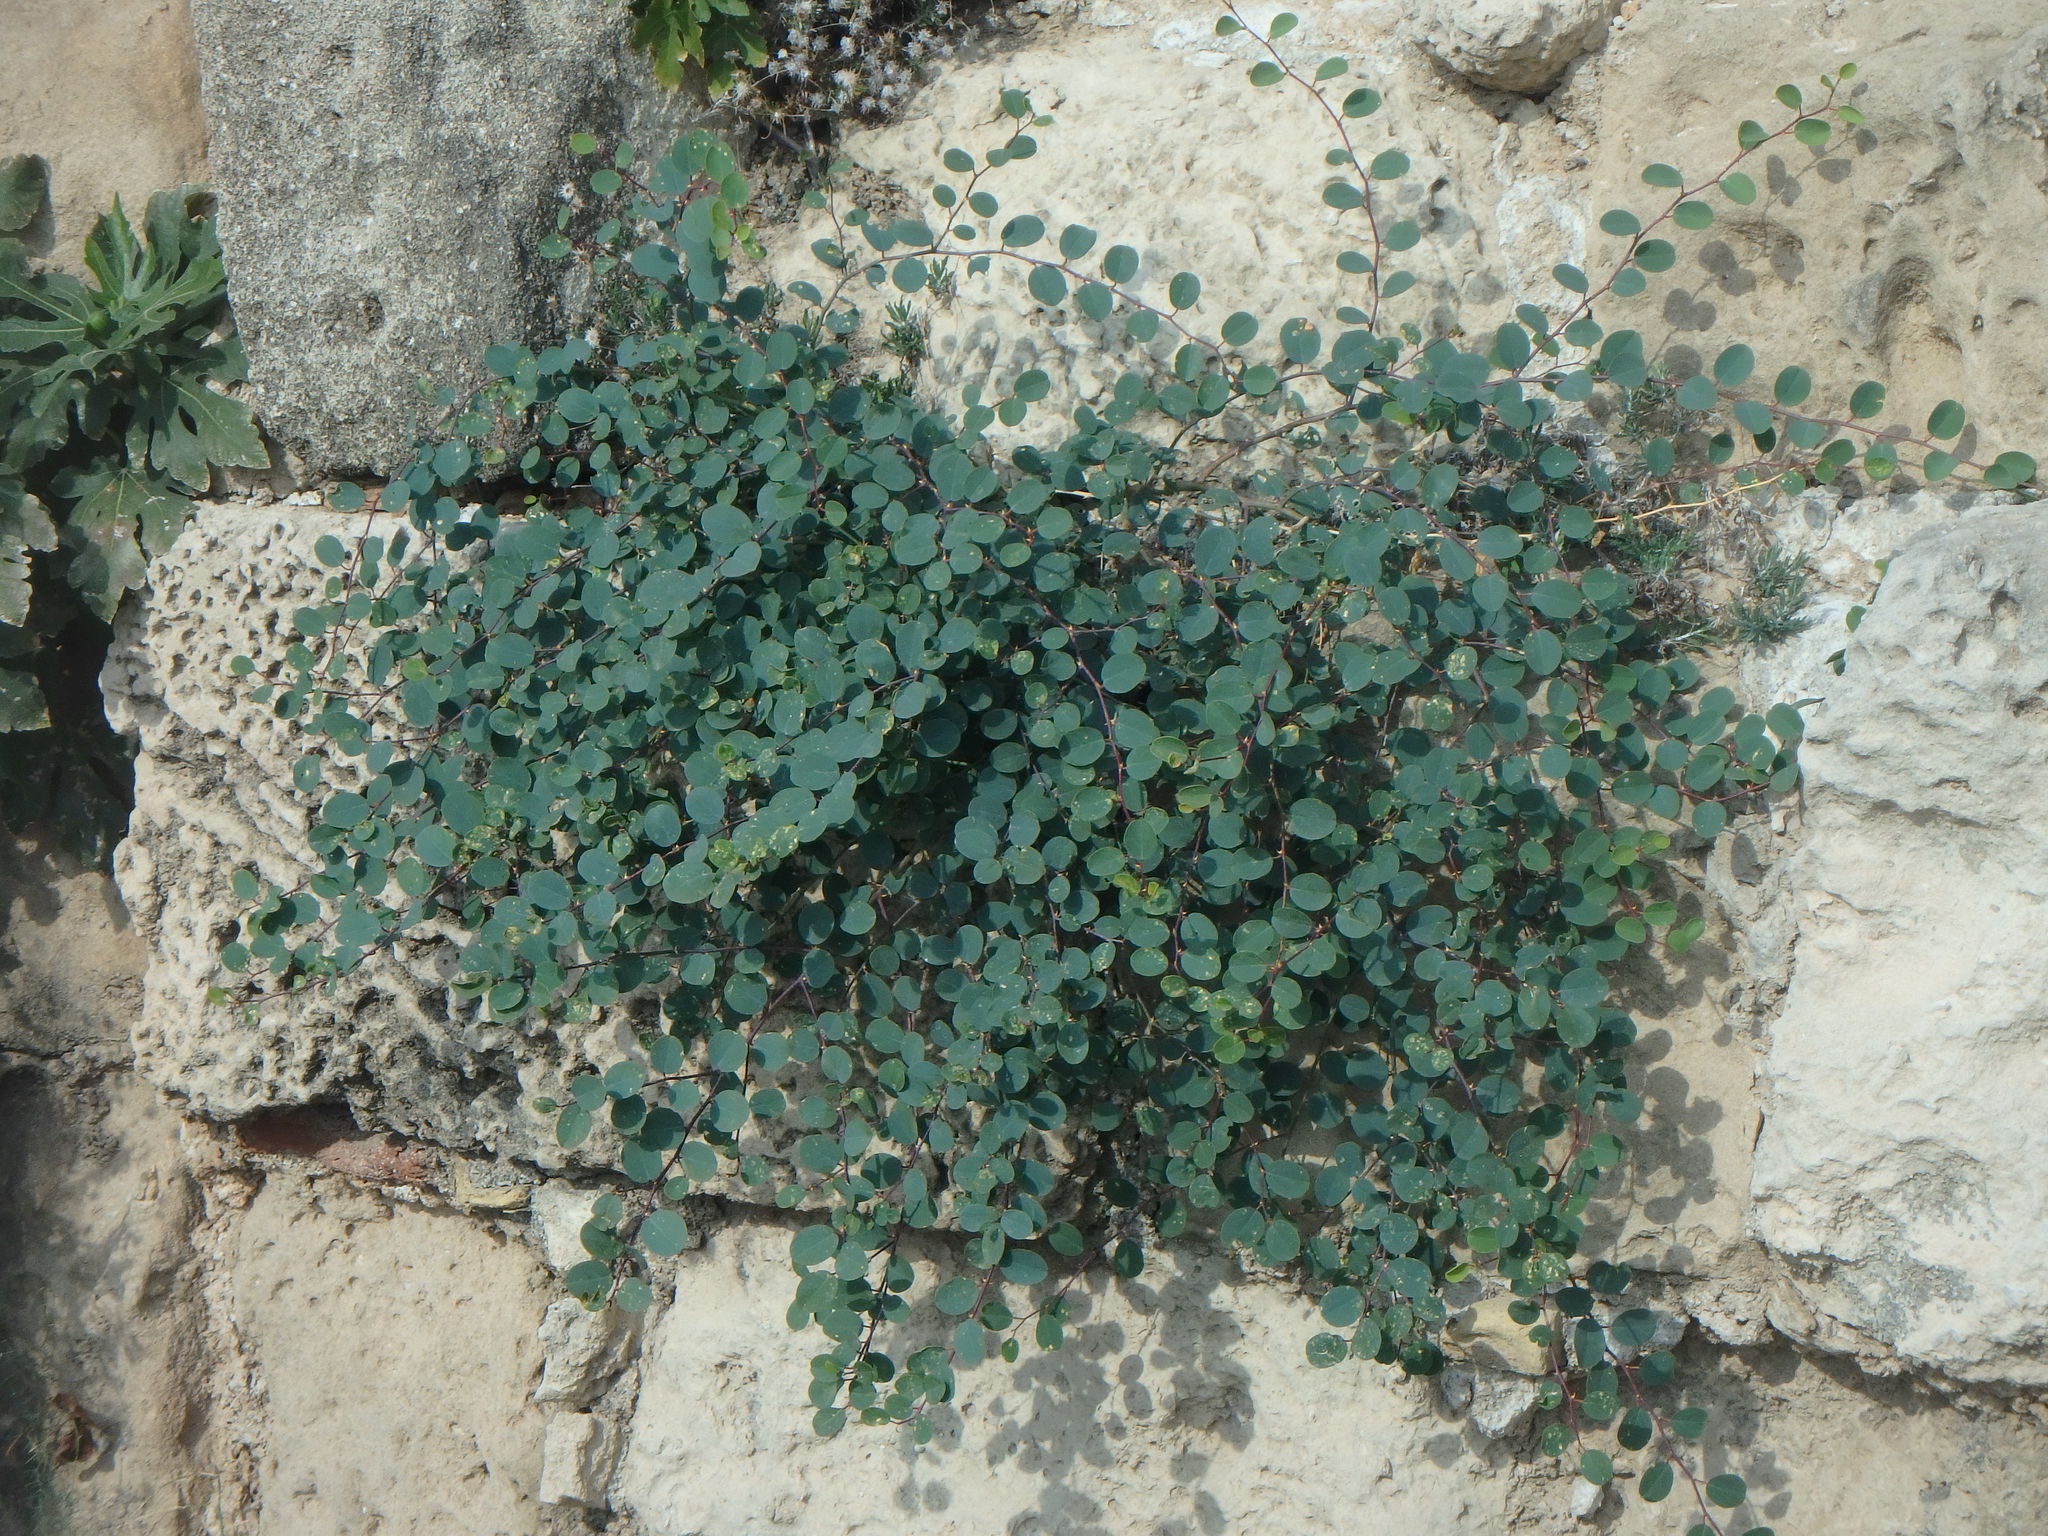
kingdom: Plantae
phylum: Tracheophyta
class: Magnoliopsida
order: Brassicales
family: Capparaceae
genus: Capparis
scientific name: Capparis spinosa
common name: Caper
